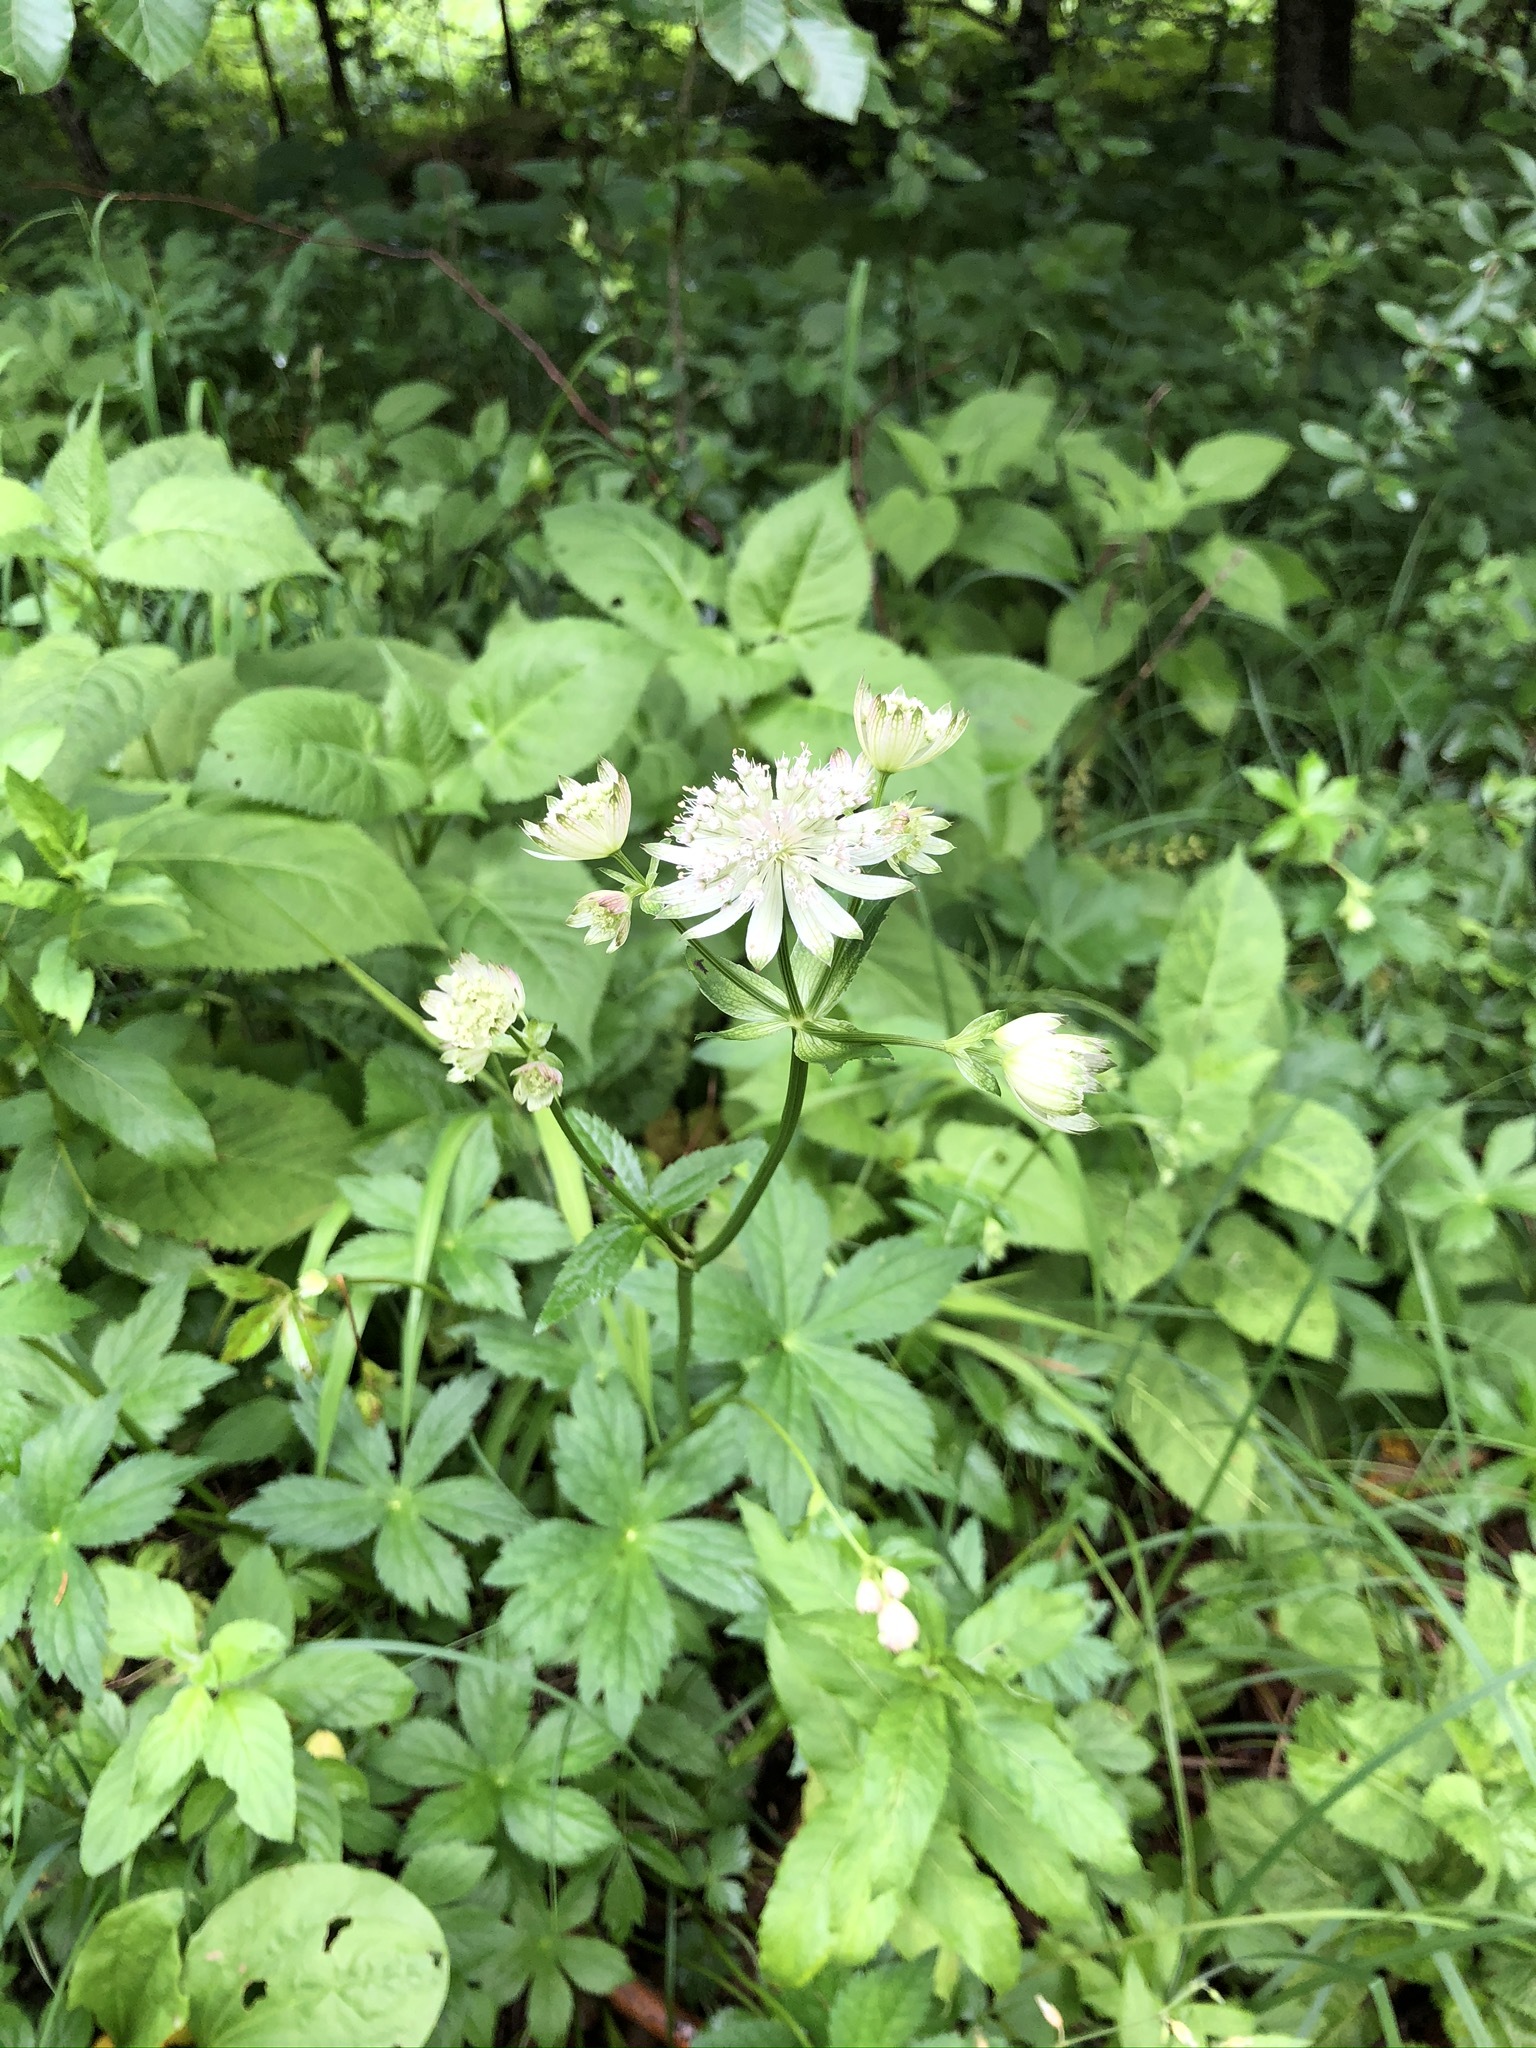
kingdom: Plantae
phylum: Tracheophyta
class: Magnoliopsida
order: Apiales
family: Apiaceae
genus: Astrantia
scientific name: Astrantia major
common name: Greater masterwort
